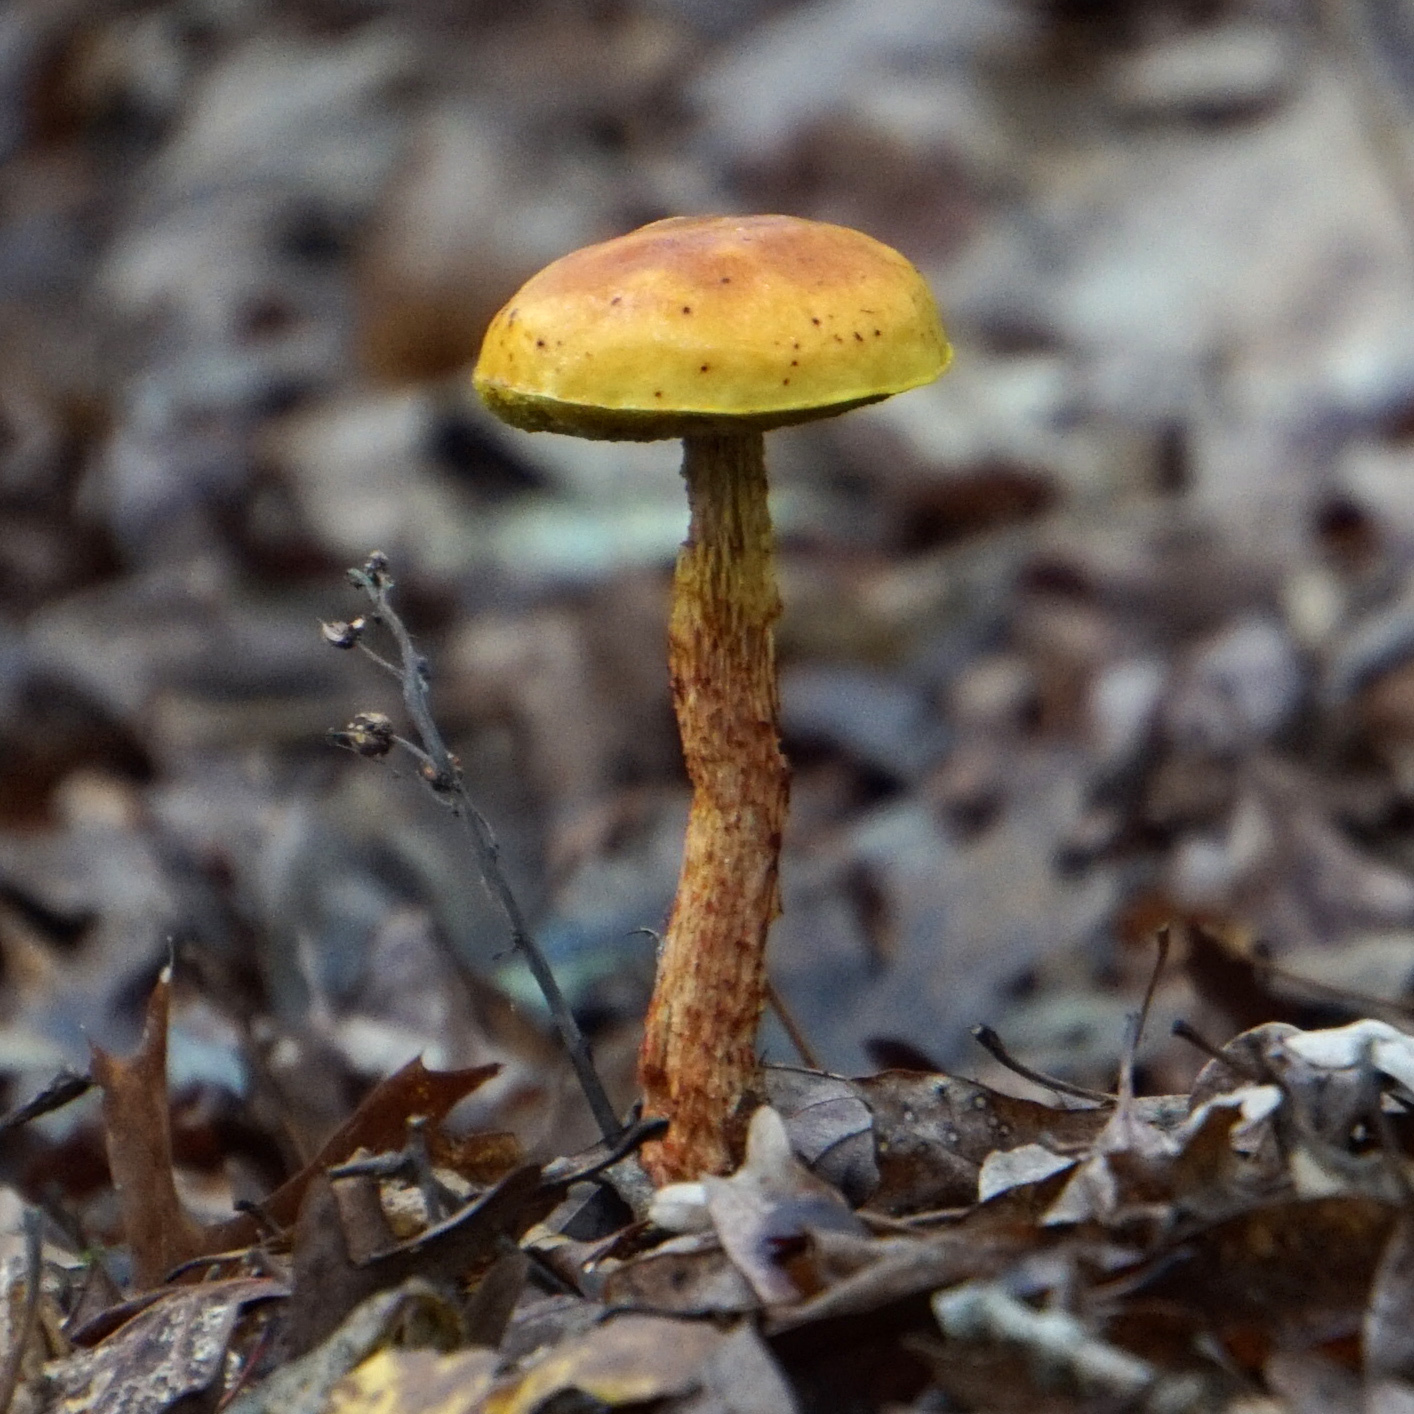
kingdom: Fungi
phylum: Basidiomycota
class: Agaricomycetes
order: Boletales
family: Boletaceae
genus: Aureoboletus
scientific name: Aureoboletus betula
